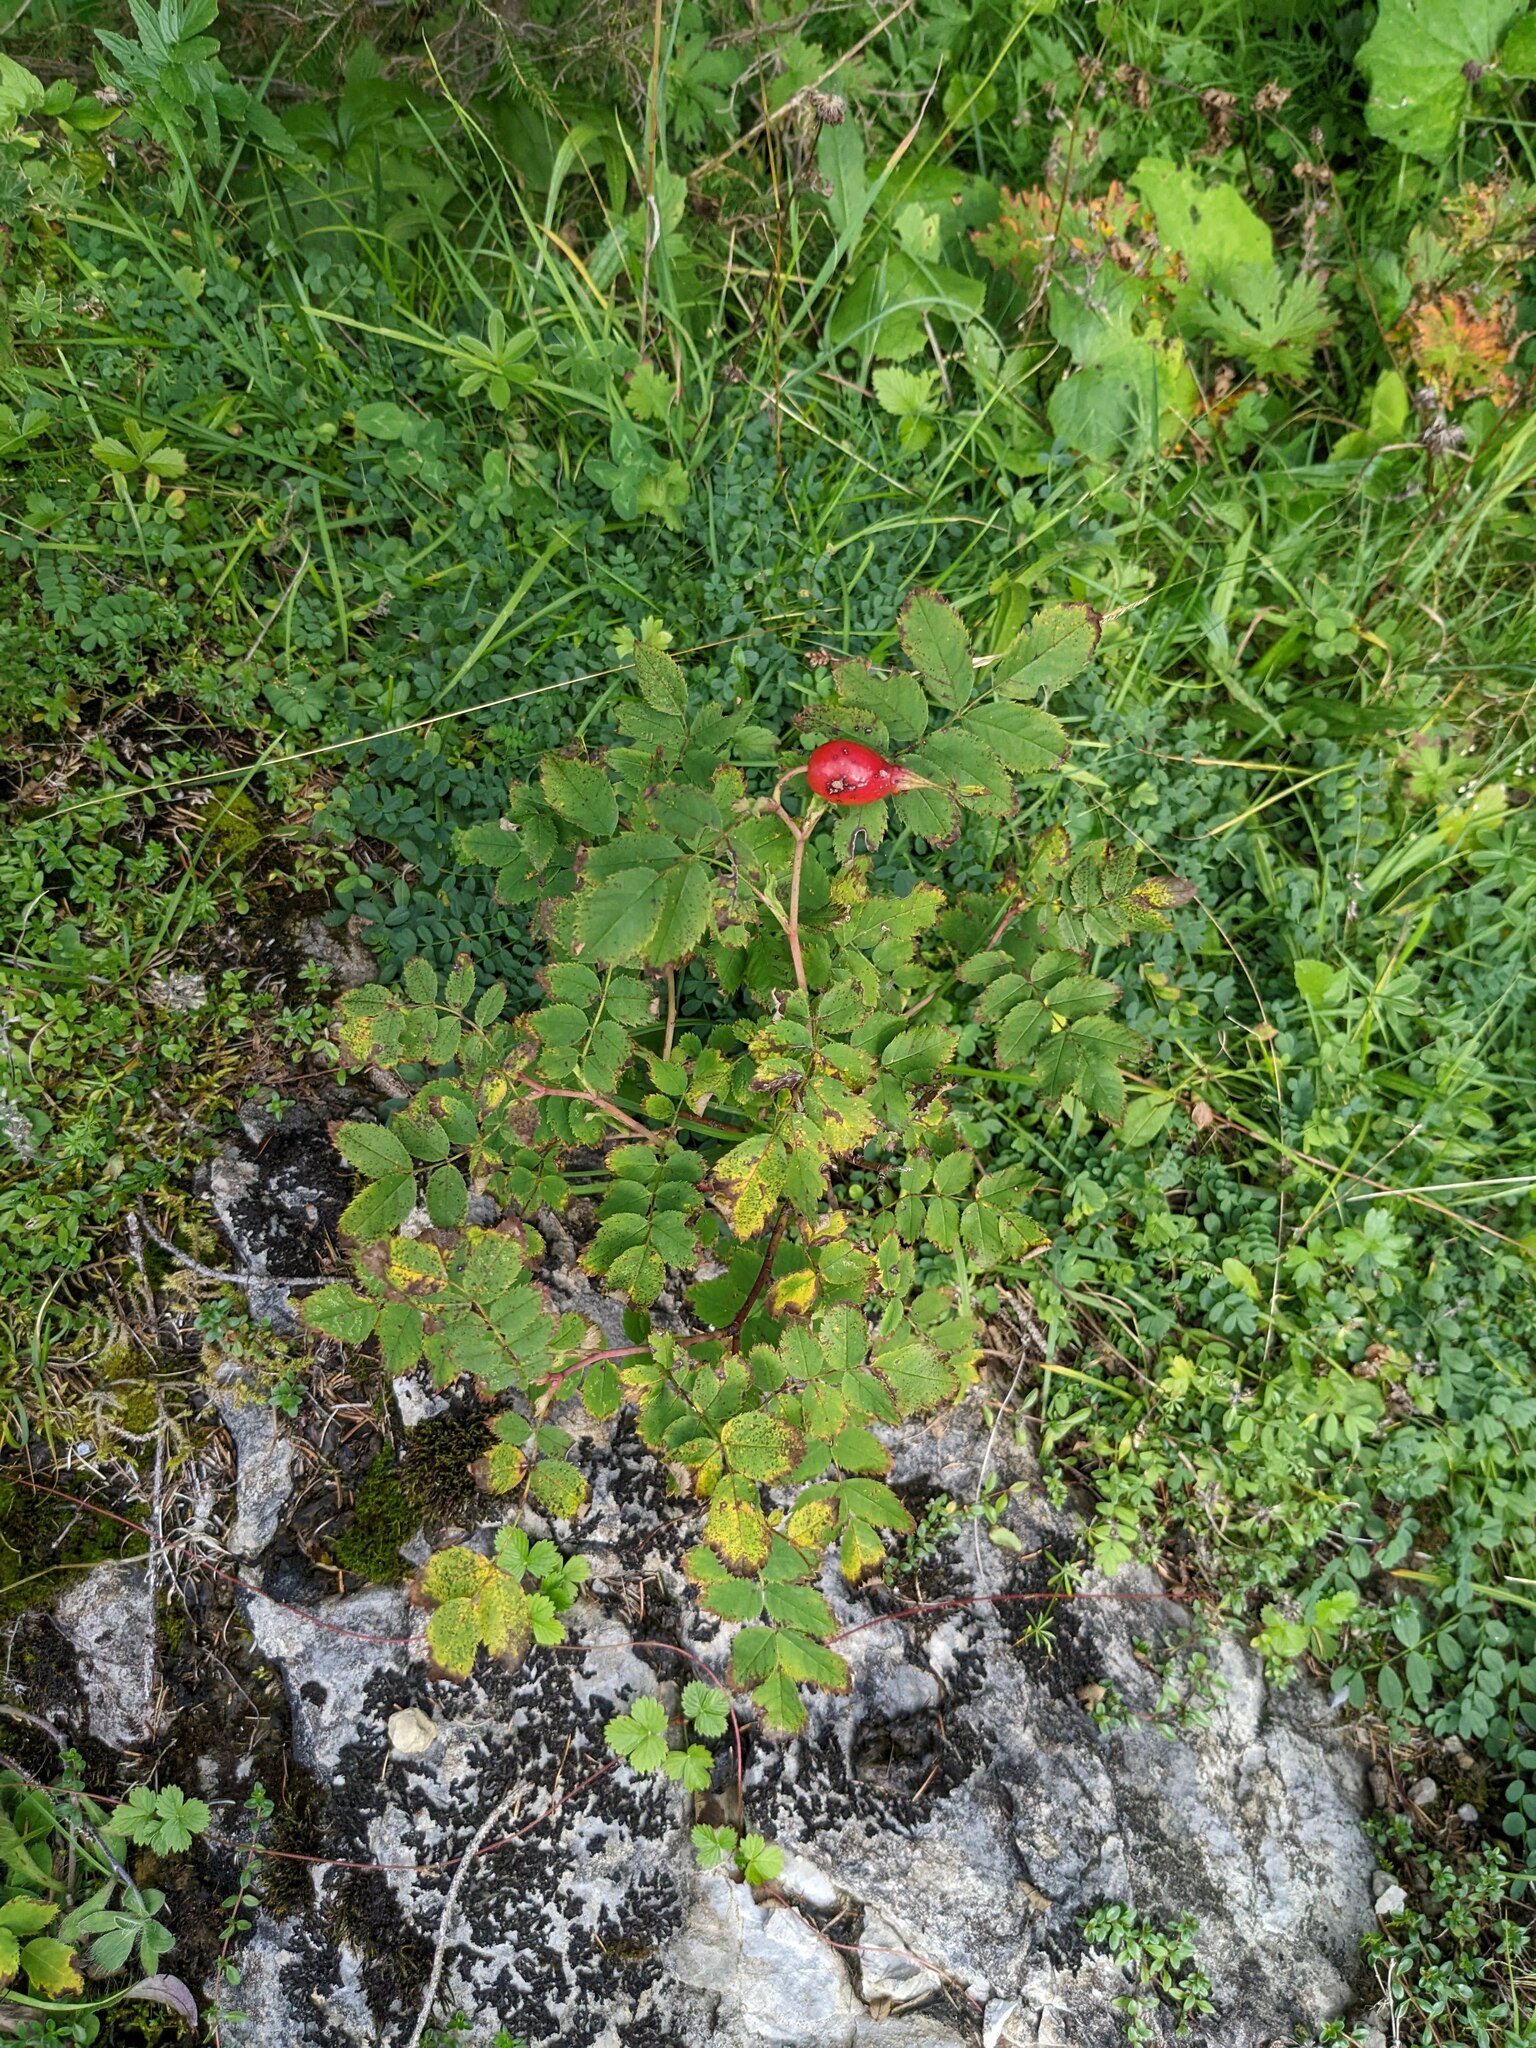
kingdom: Plantae
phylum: Tracheophyta
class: Magnoliopsida
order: Rosales
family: Rosaceae
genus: Rosa
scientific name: Rosa pendulina
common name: Alpine rose
